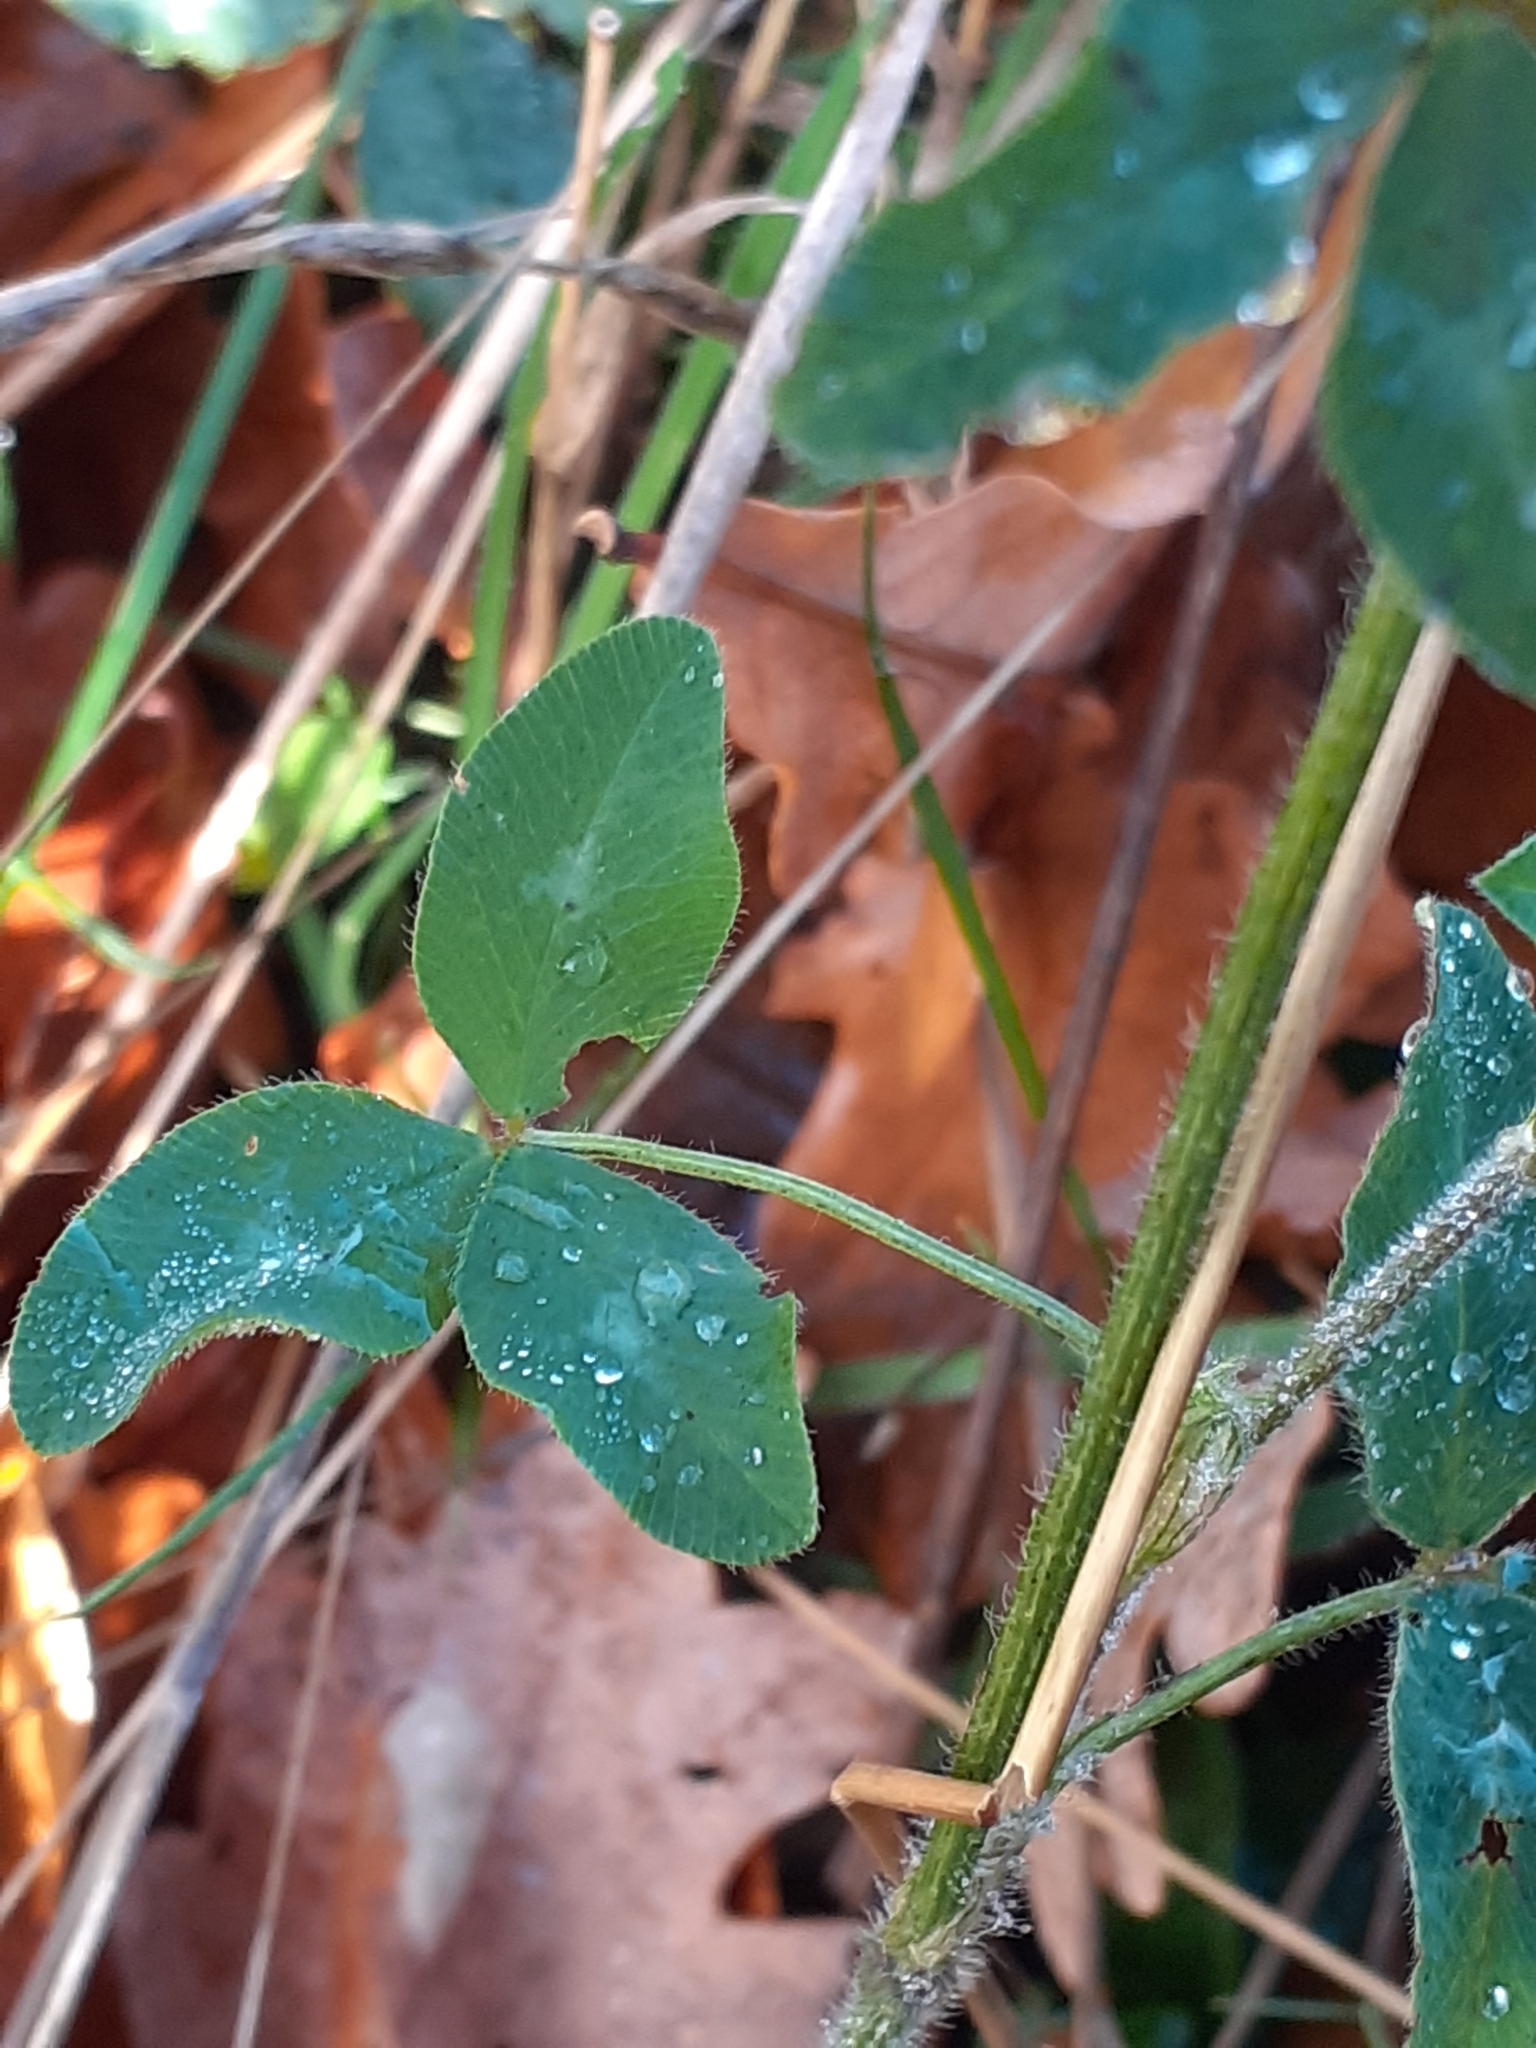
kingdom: Plantae
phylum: Tracheophyta
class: Magnoliopsida
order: Fabales
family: Fabaceae
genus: Trifolium
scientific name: Trifolium pratense
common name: Red clover
